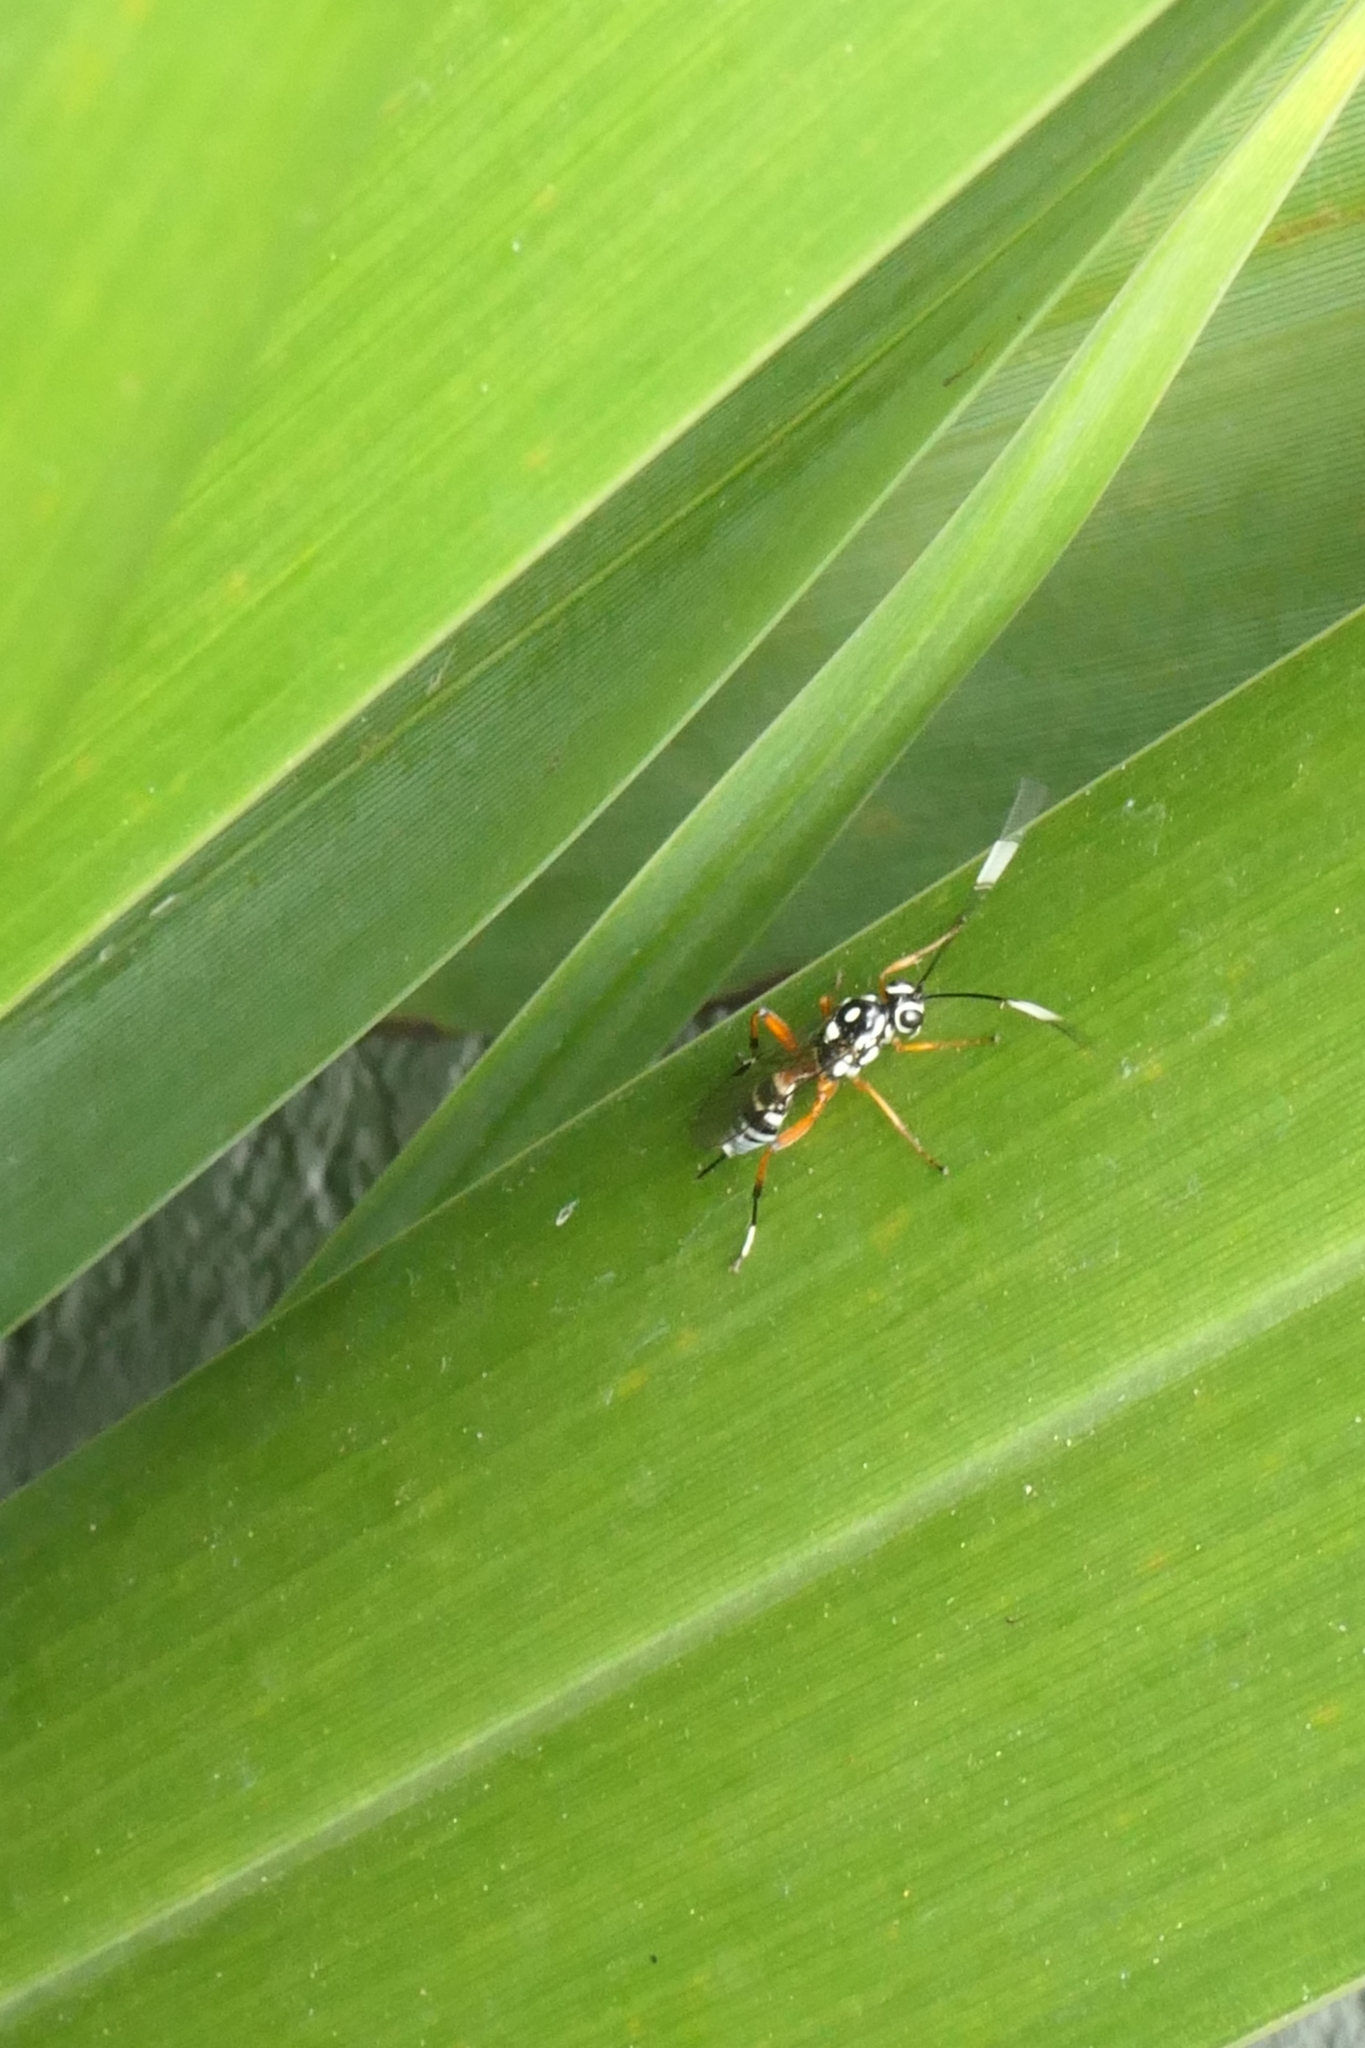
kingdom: Animalia
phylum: Arthropoda
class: Insecta
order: Hymenoptera
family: Ichneumonidae
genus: Glabridorsum
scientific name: Glabridorsum stokesii
